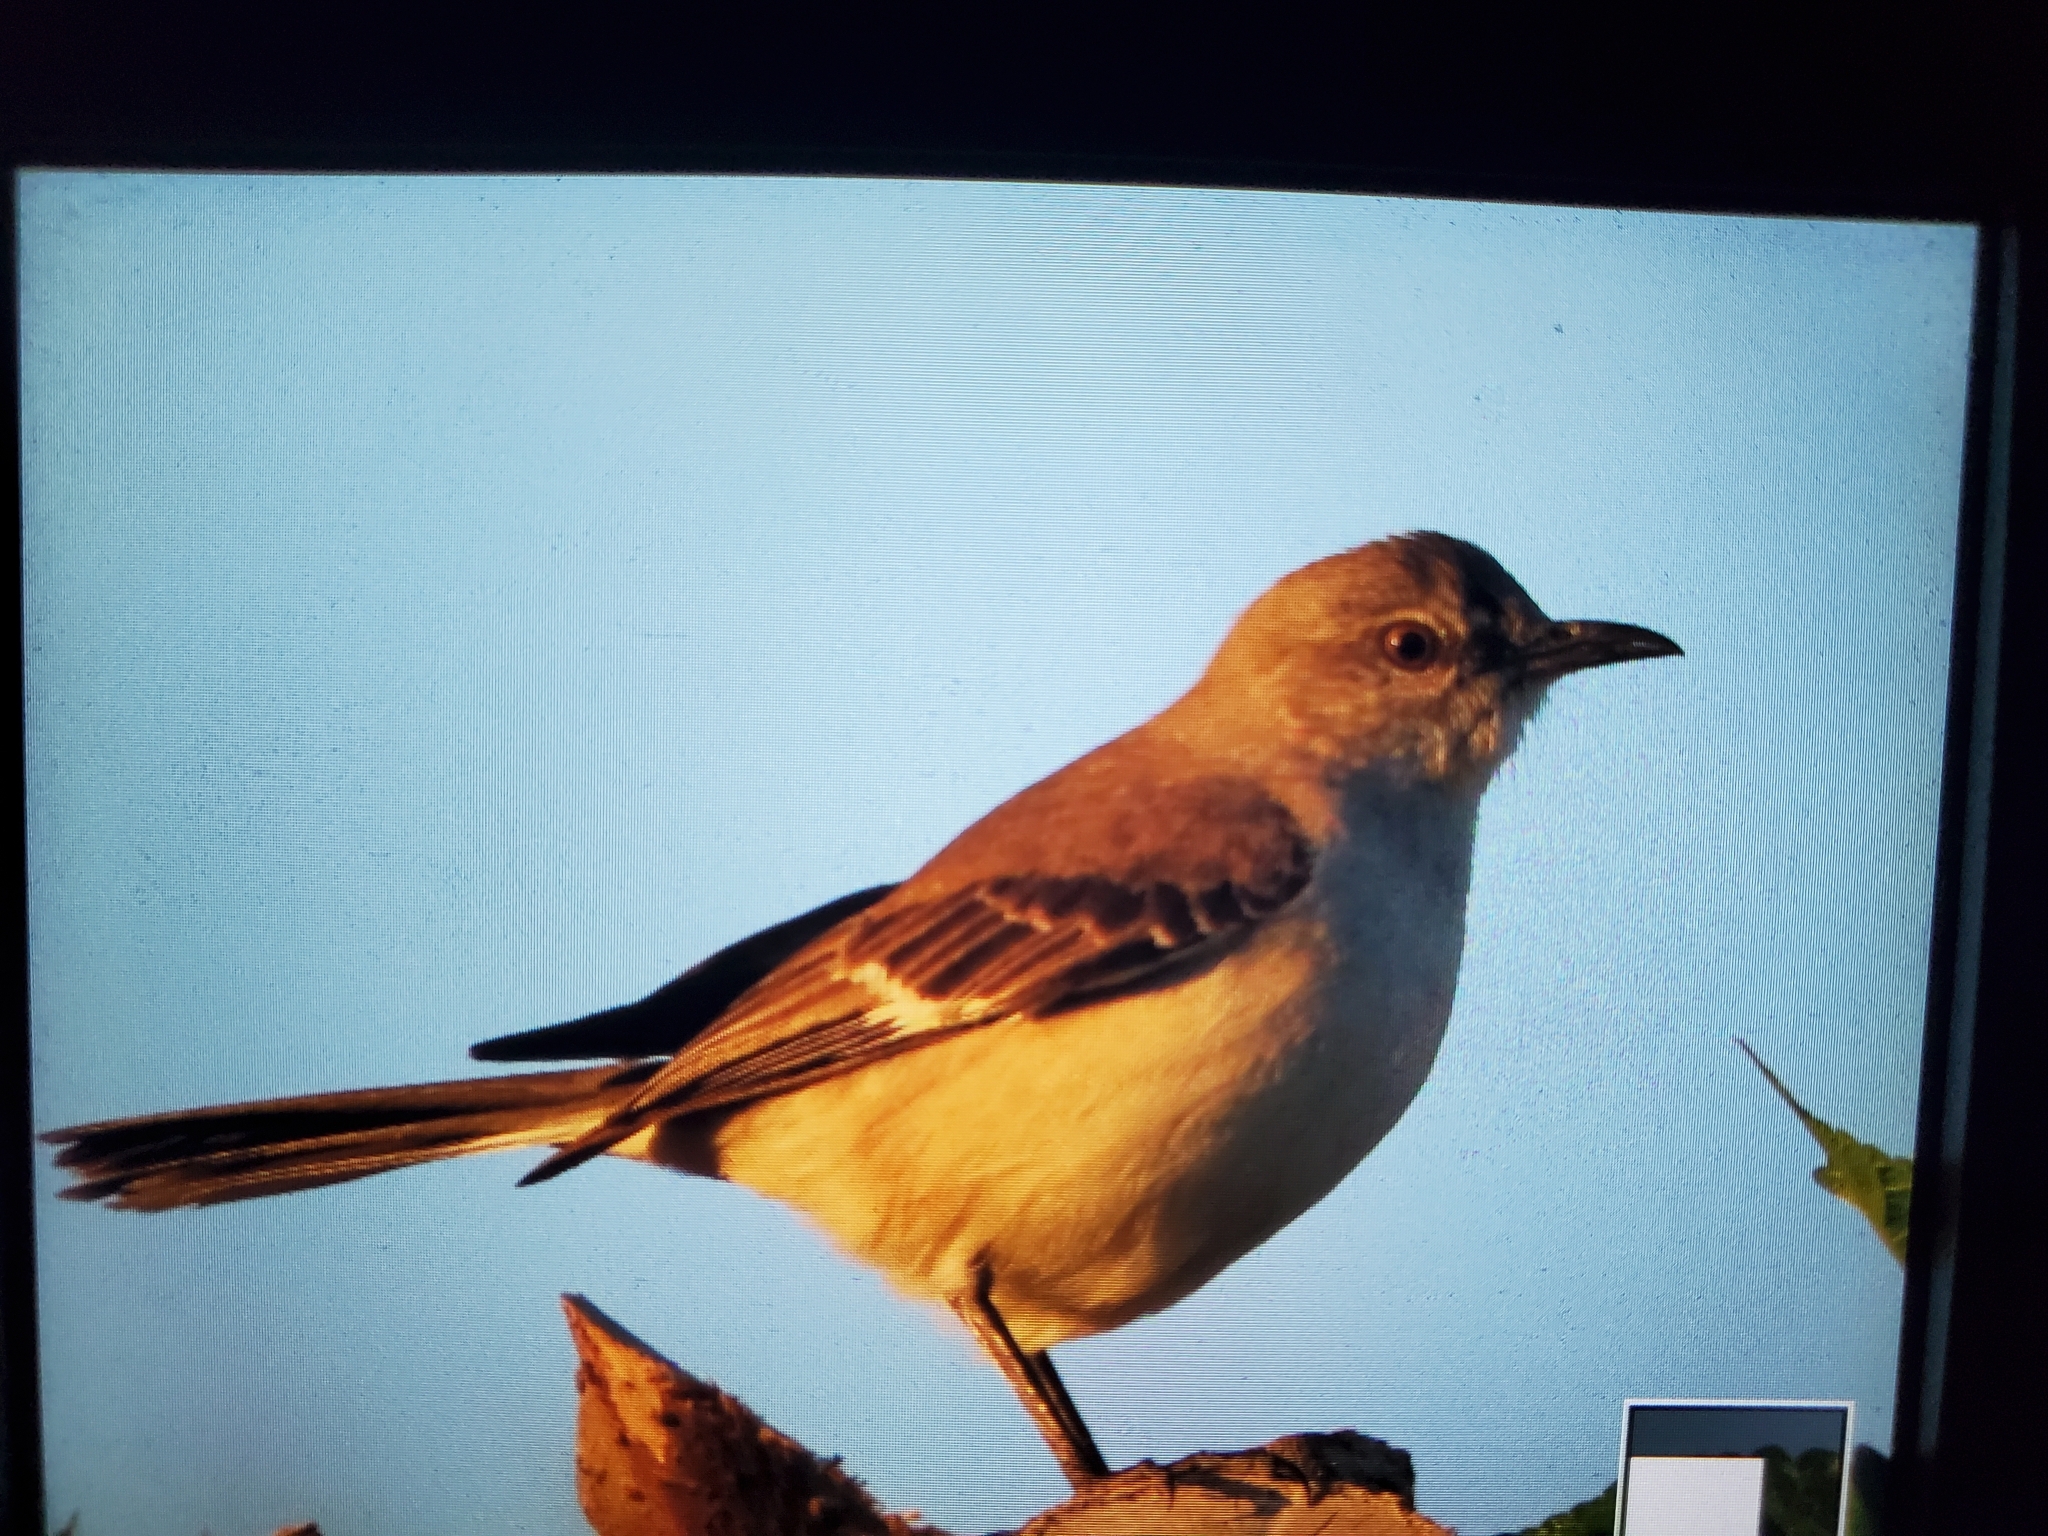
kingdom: Animalia
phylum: Chordata
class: Aves
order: Passeriformes
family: Mimidae
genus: Mimus
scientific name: Mimus polyglottos
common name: Northern mockingbird
